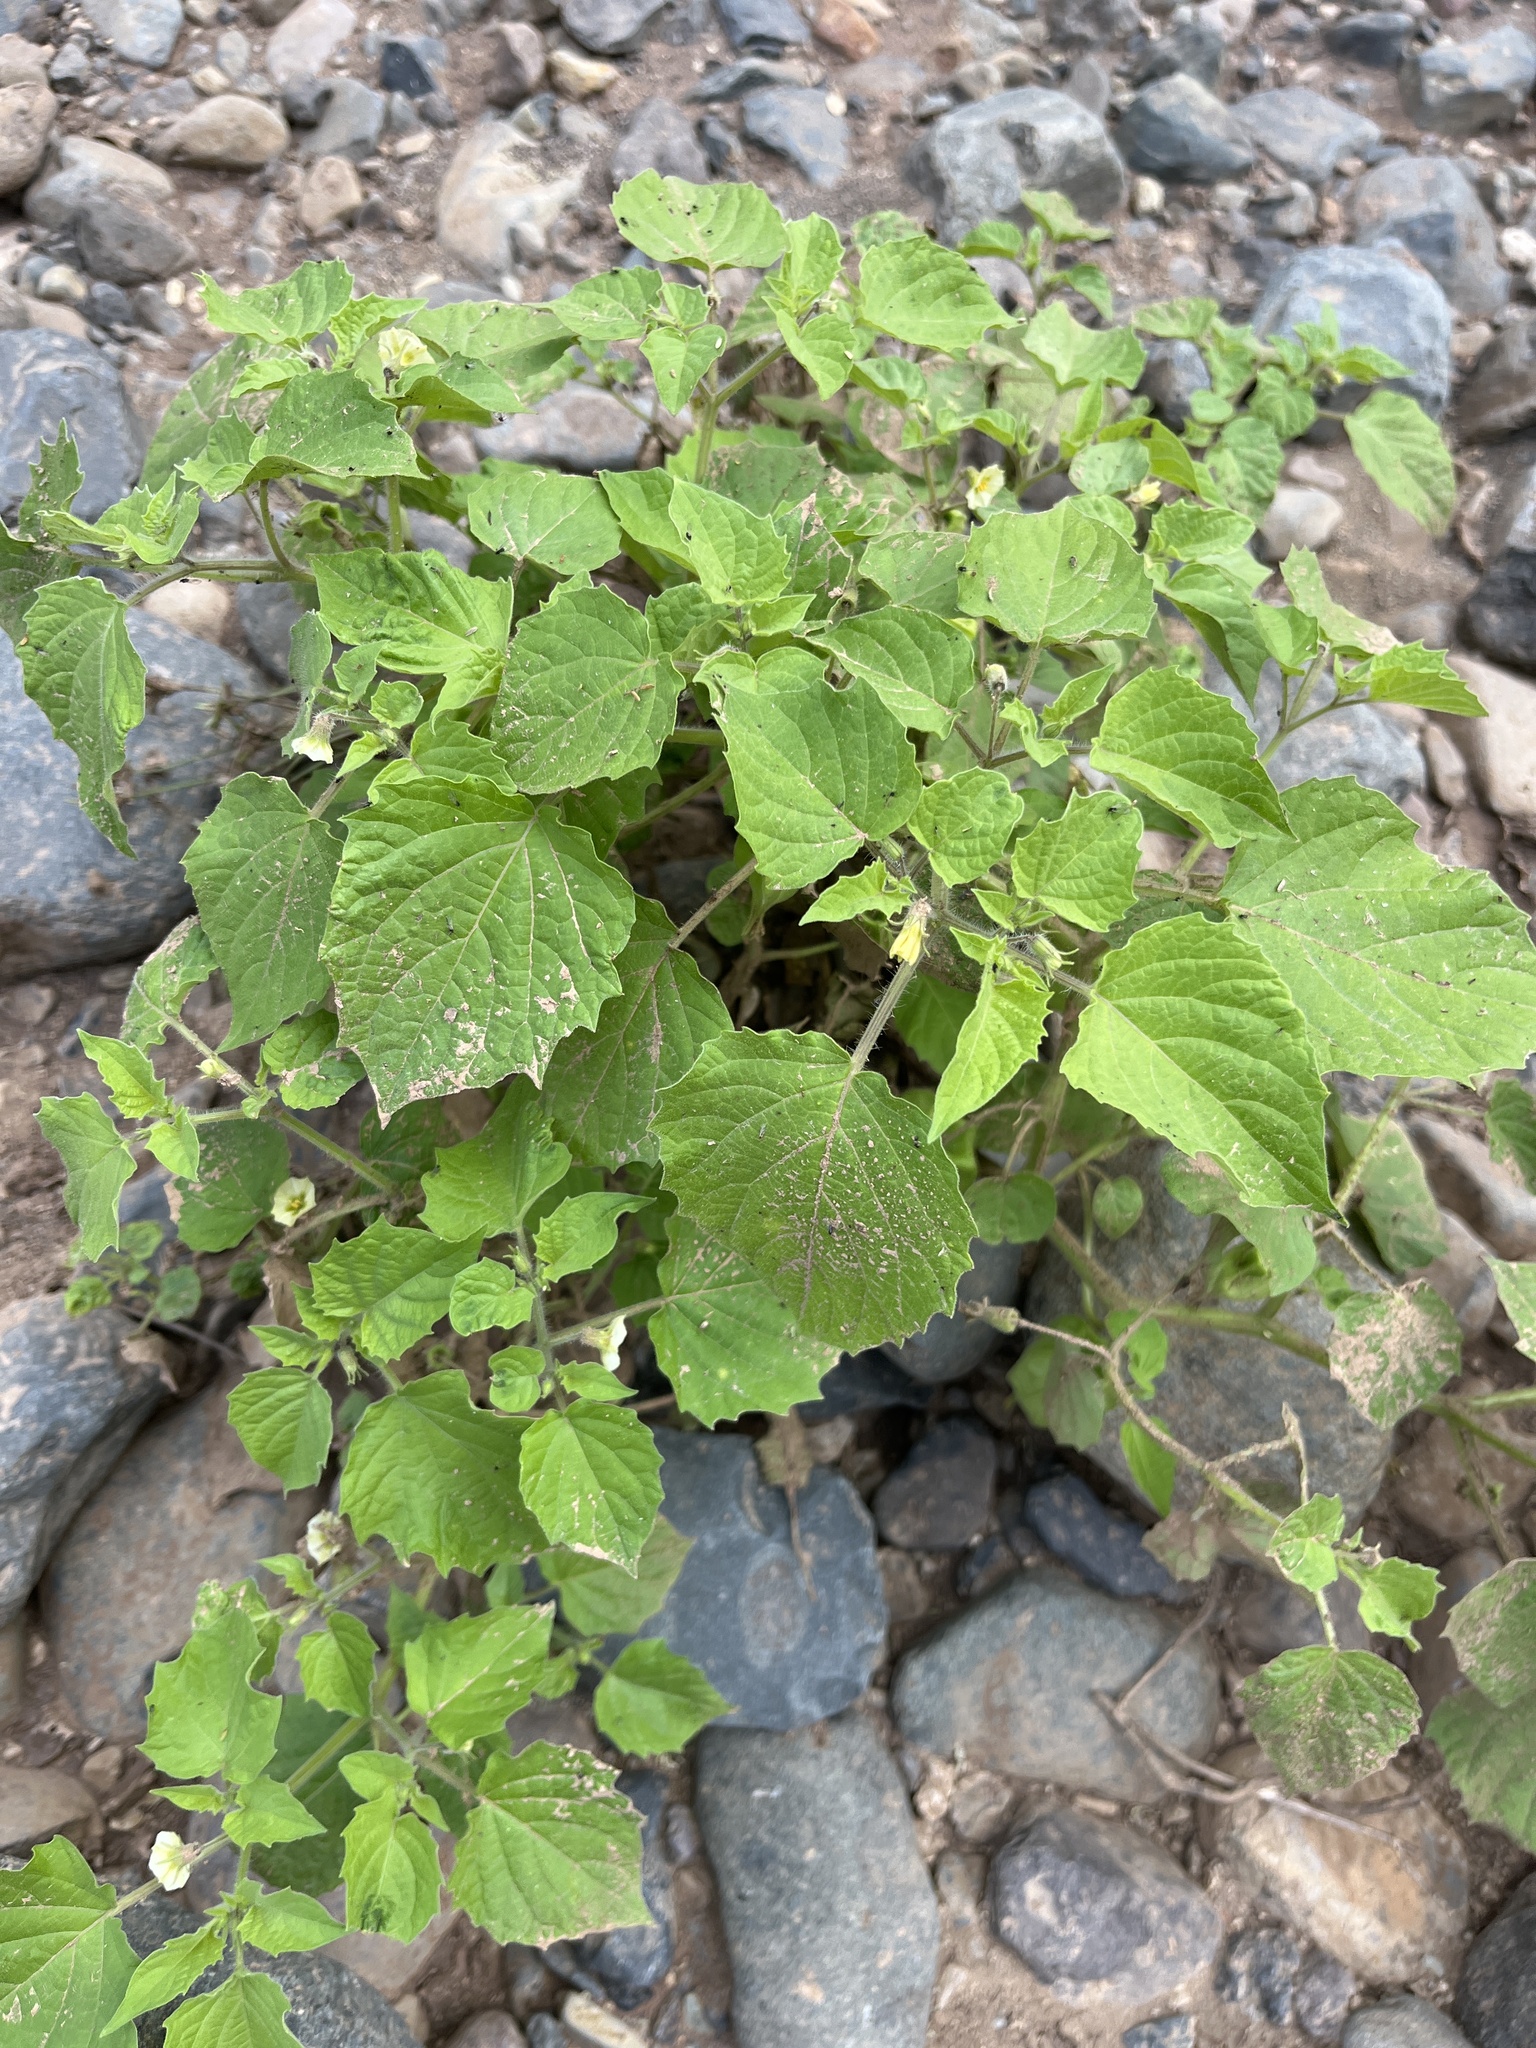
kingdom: Plantae
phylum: Tracheophyta
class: Magnoliopsida
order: Solanales
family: Solanaceae
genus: Physalis
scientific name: Physalis pruinosa
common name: Strawberry tomato
